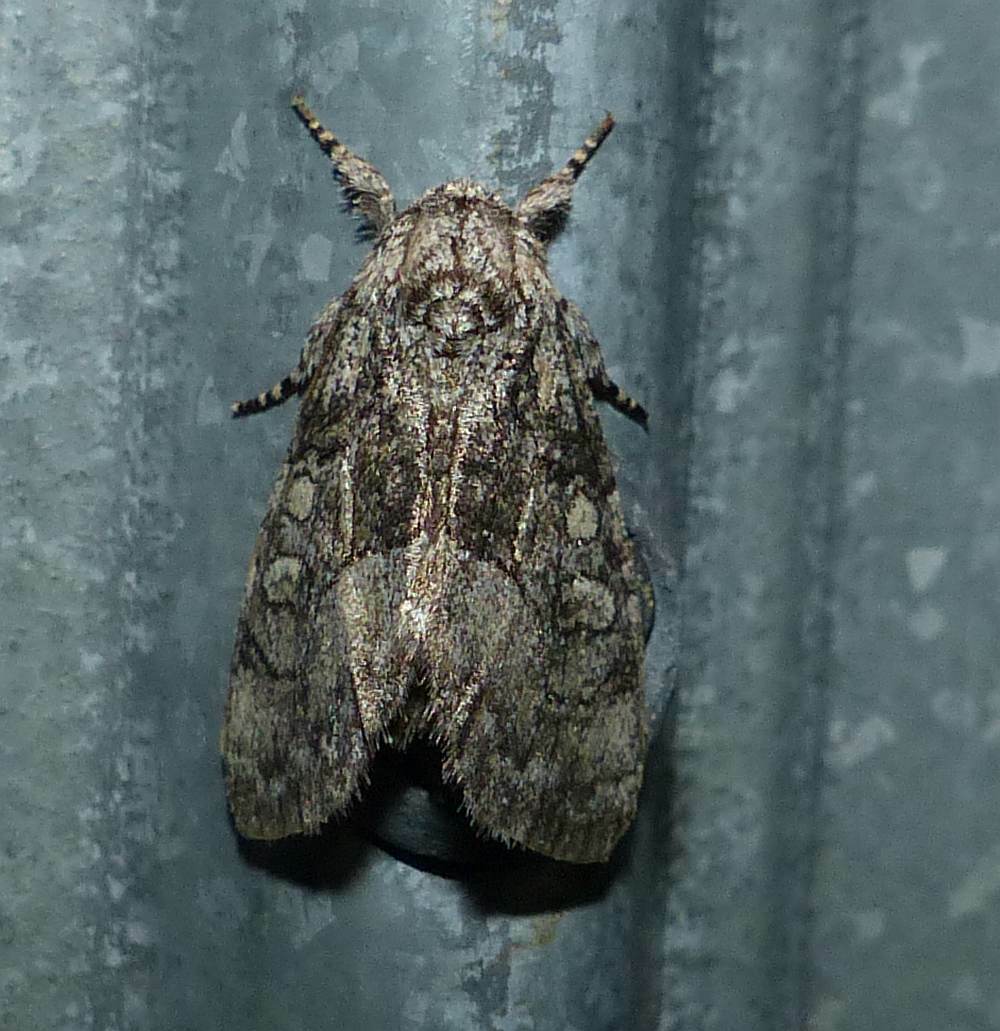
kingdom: Animalia
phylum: Arthropoda
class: Insecta
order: Lepidoptera
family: Noctuidae
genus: Raphia
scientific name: Raphia frater
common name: Brother
